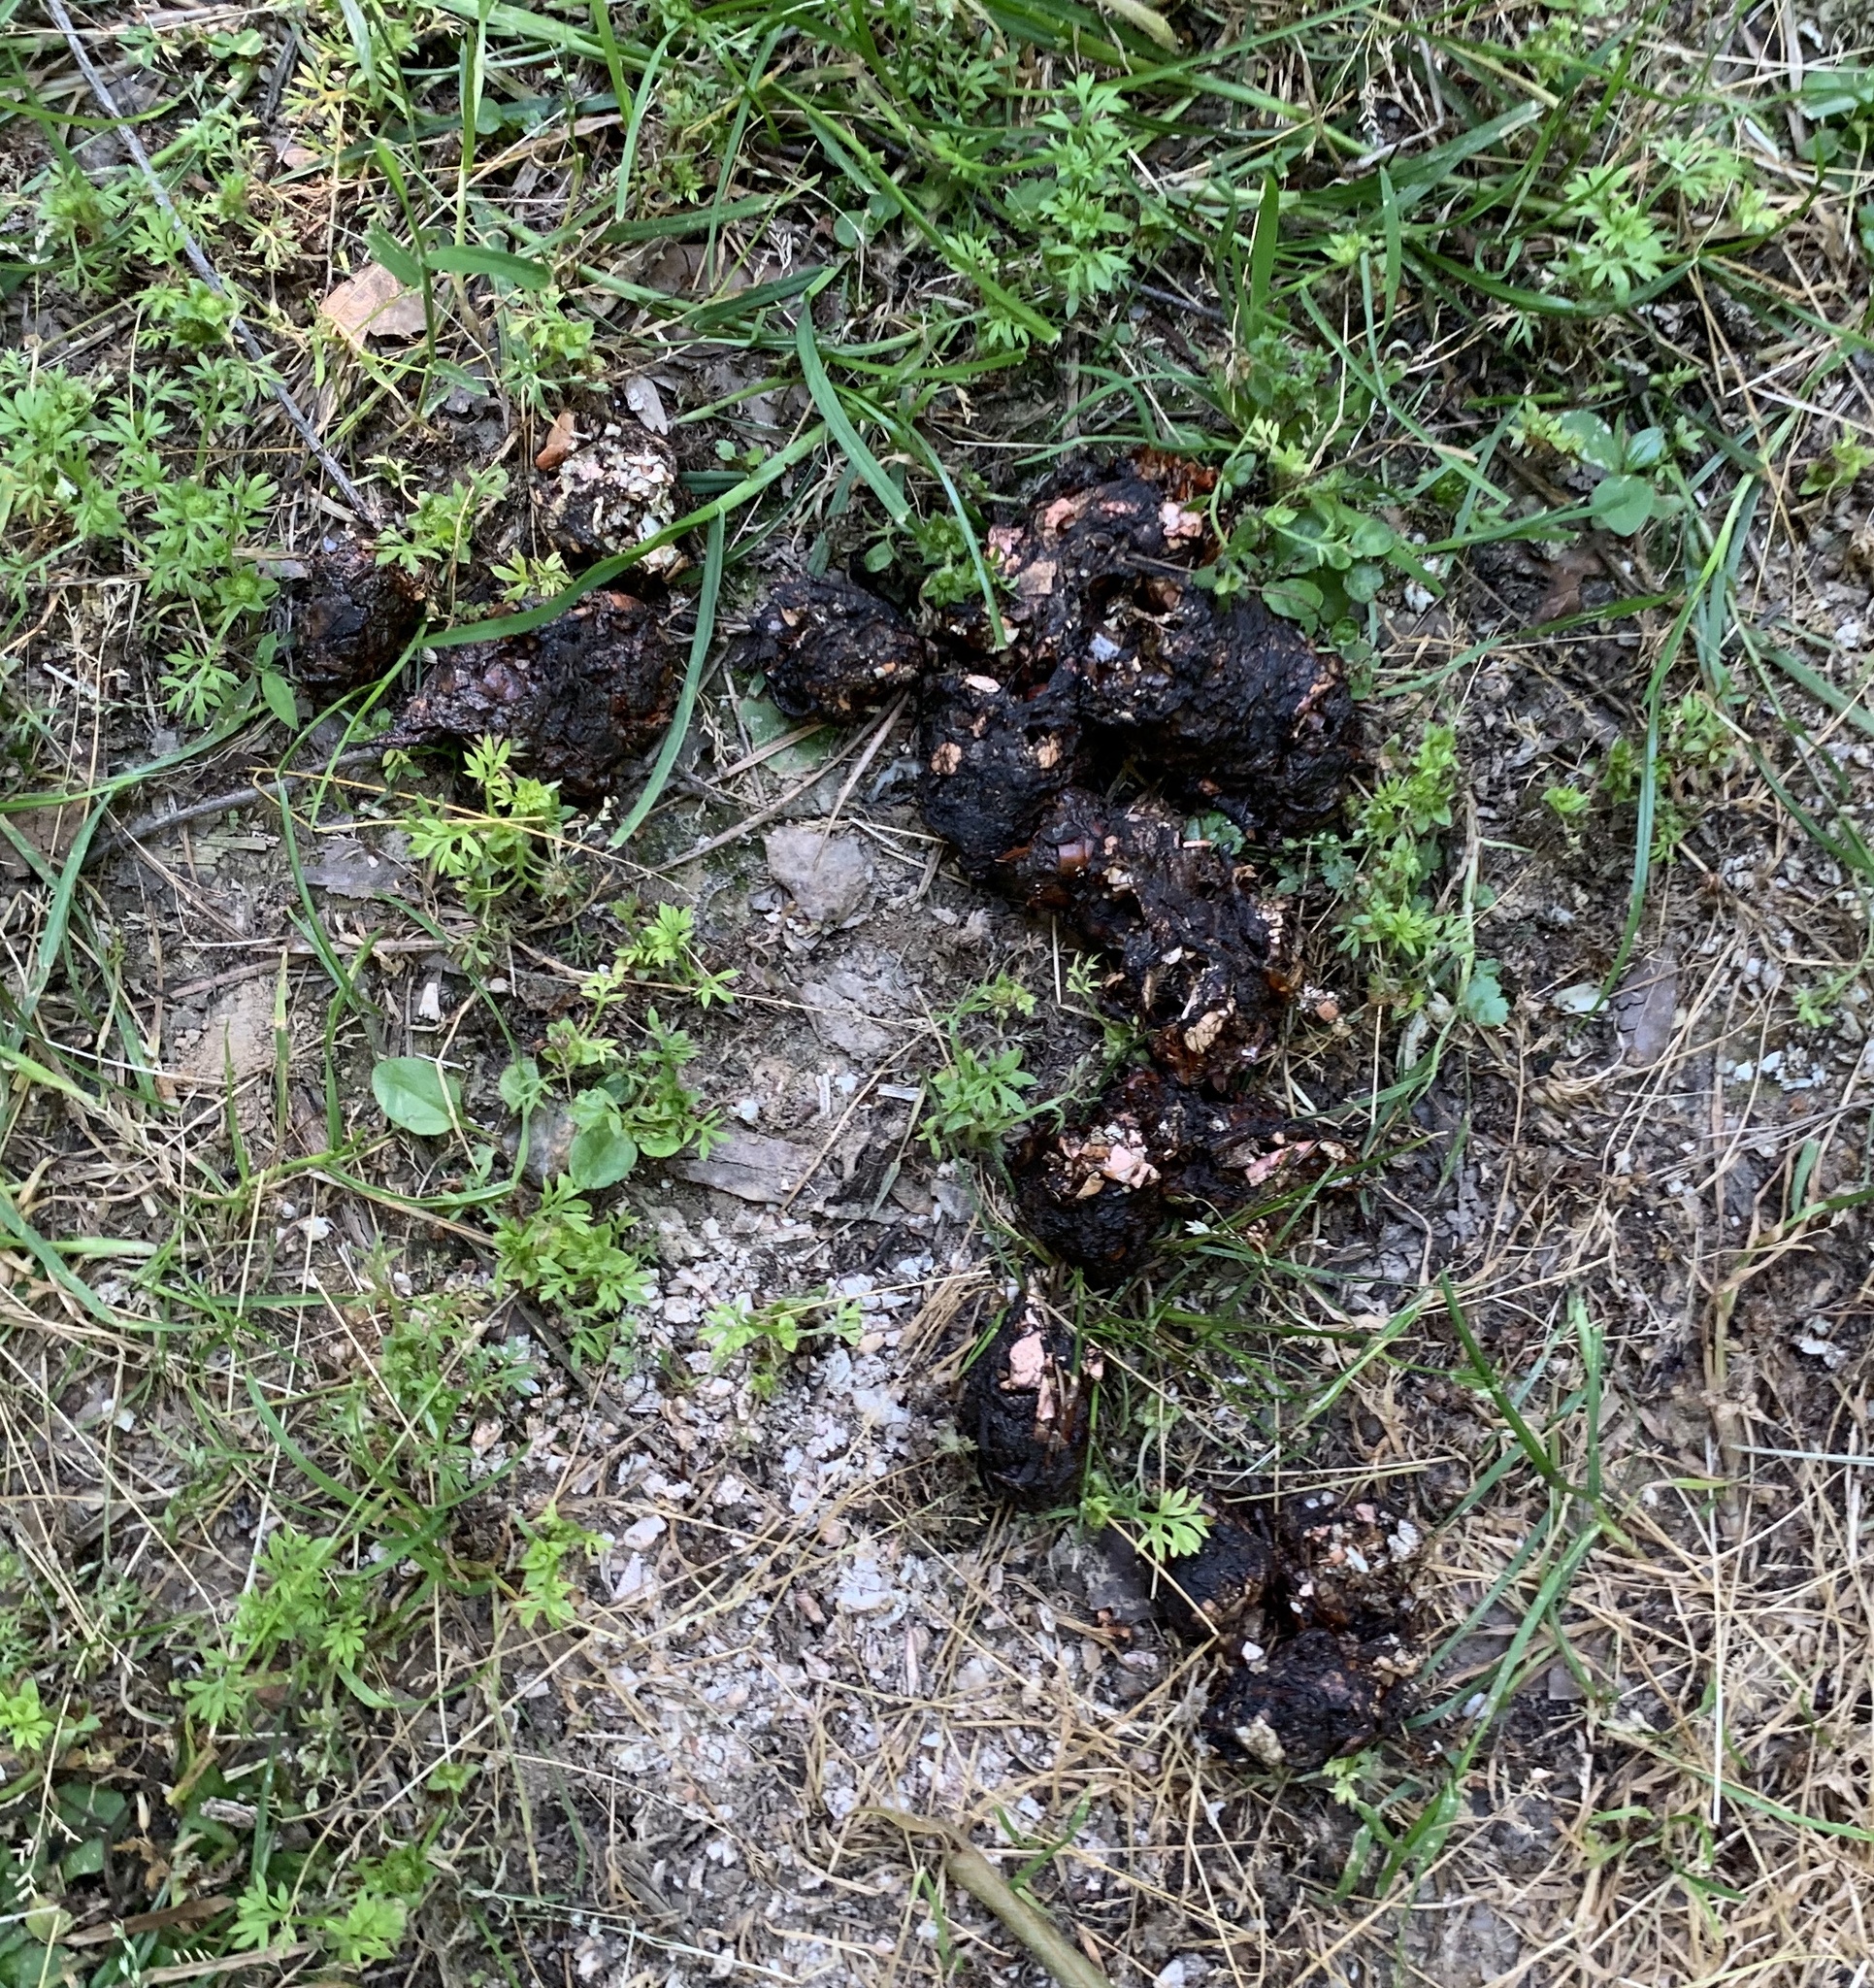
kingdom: Animalia
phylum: Chordata
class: Mammalia
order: Carnivora
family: Mustelidae
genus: Lontra
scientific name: Lontra canadensis
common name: North american river otter
